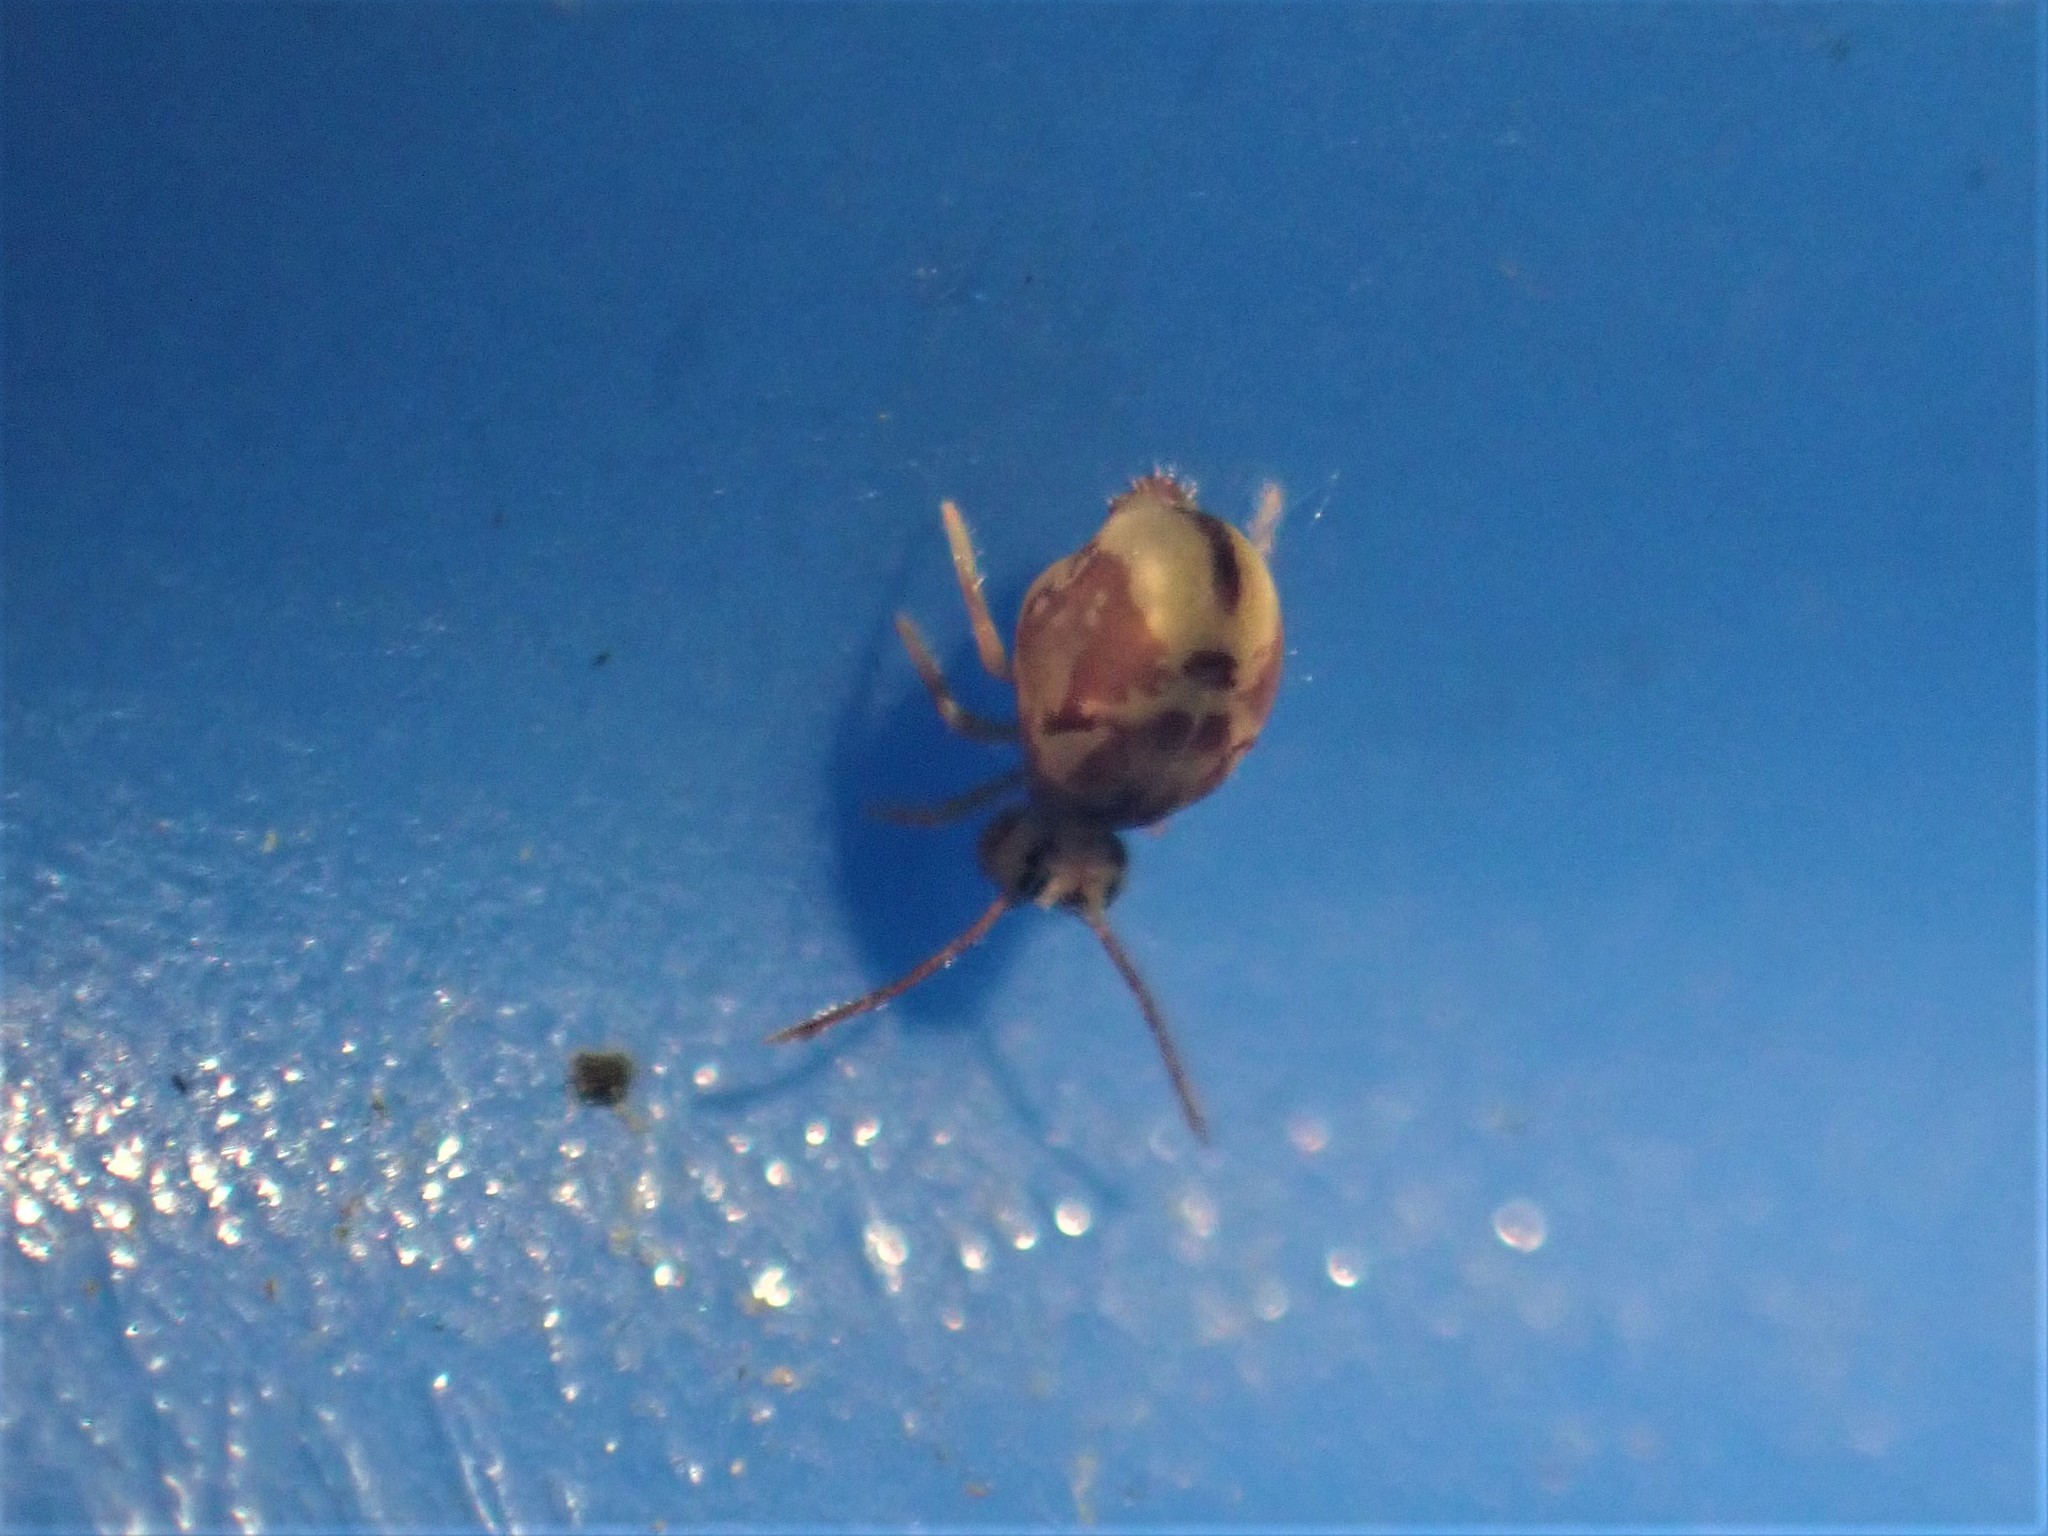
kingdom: Animalia
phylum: Arthropoda
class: Collembola
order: Symphypleona
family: Dicyrtomidae
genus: Dicyrtomina
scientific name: Dicyrtomina minuta
